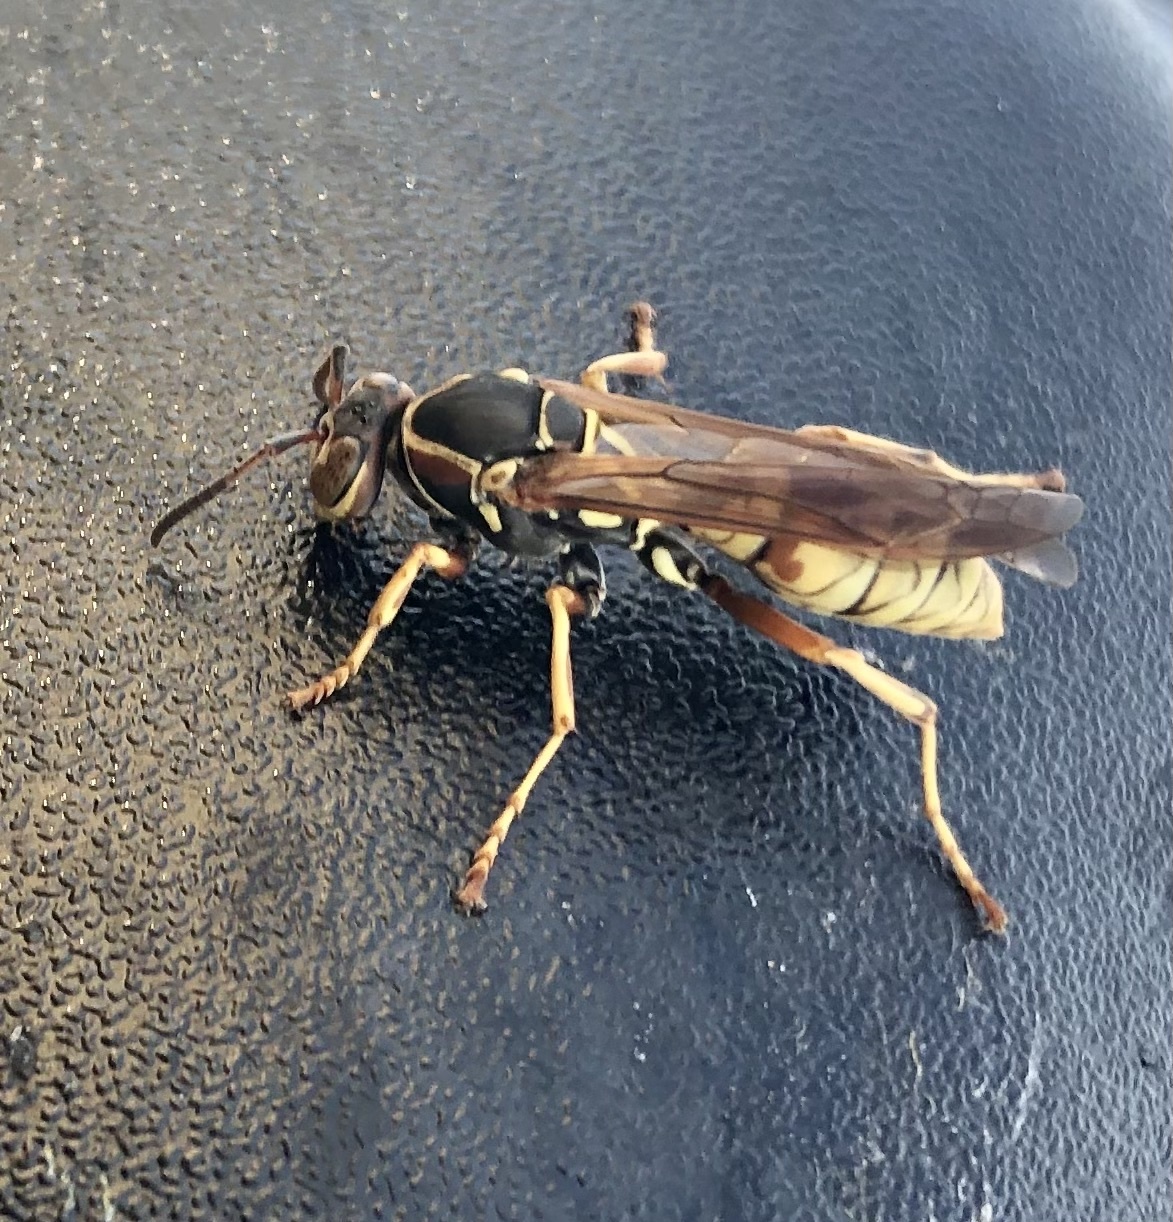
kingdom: Animalia
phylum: Arthropoda
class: Insecta
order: Hymenoptera
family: Eumenidae
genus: Polistes
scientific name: Polistes aurifer
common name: Paper wasp
